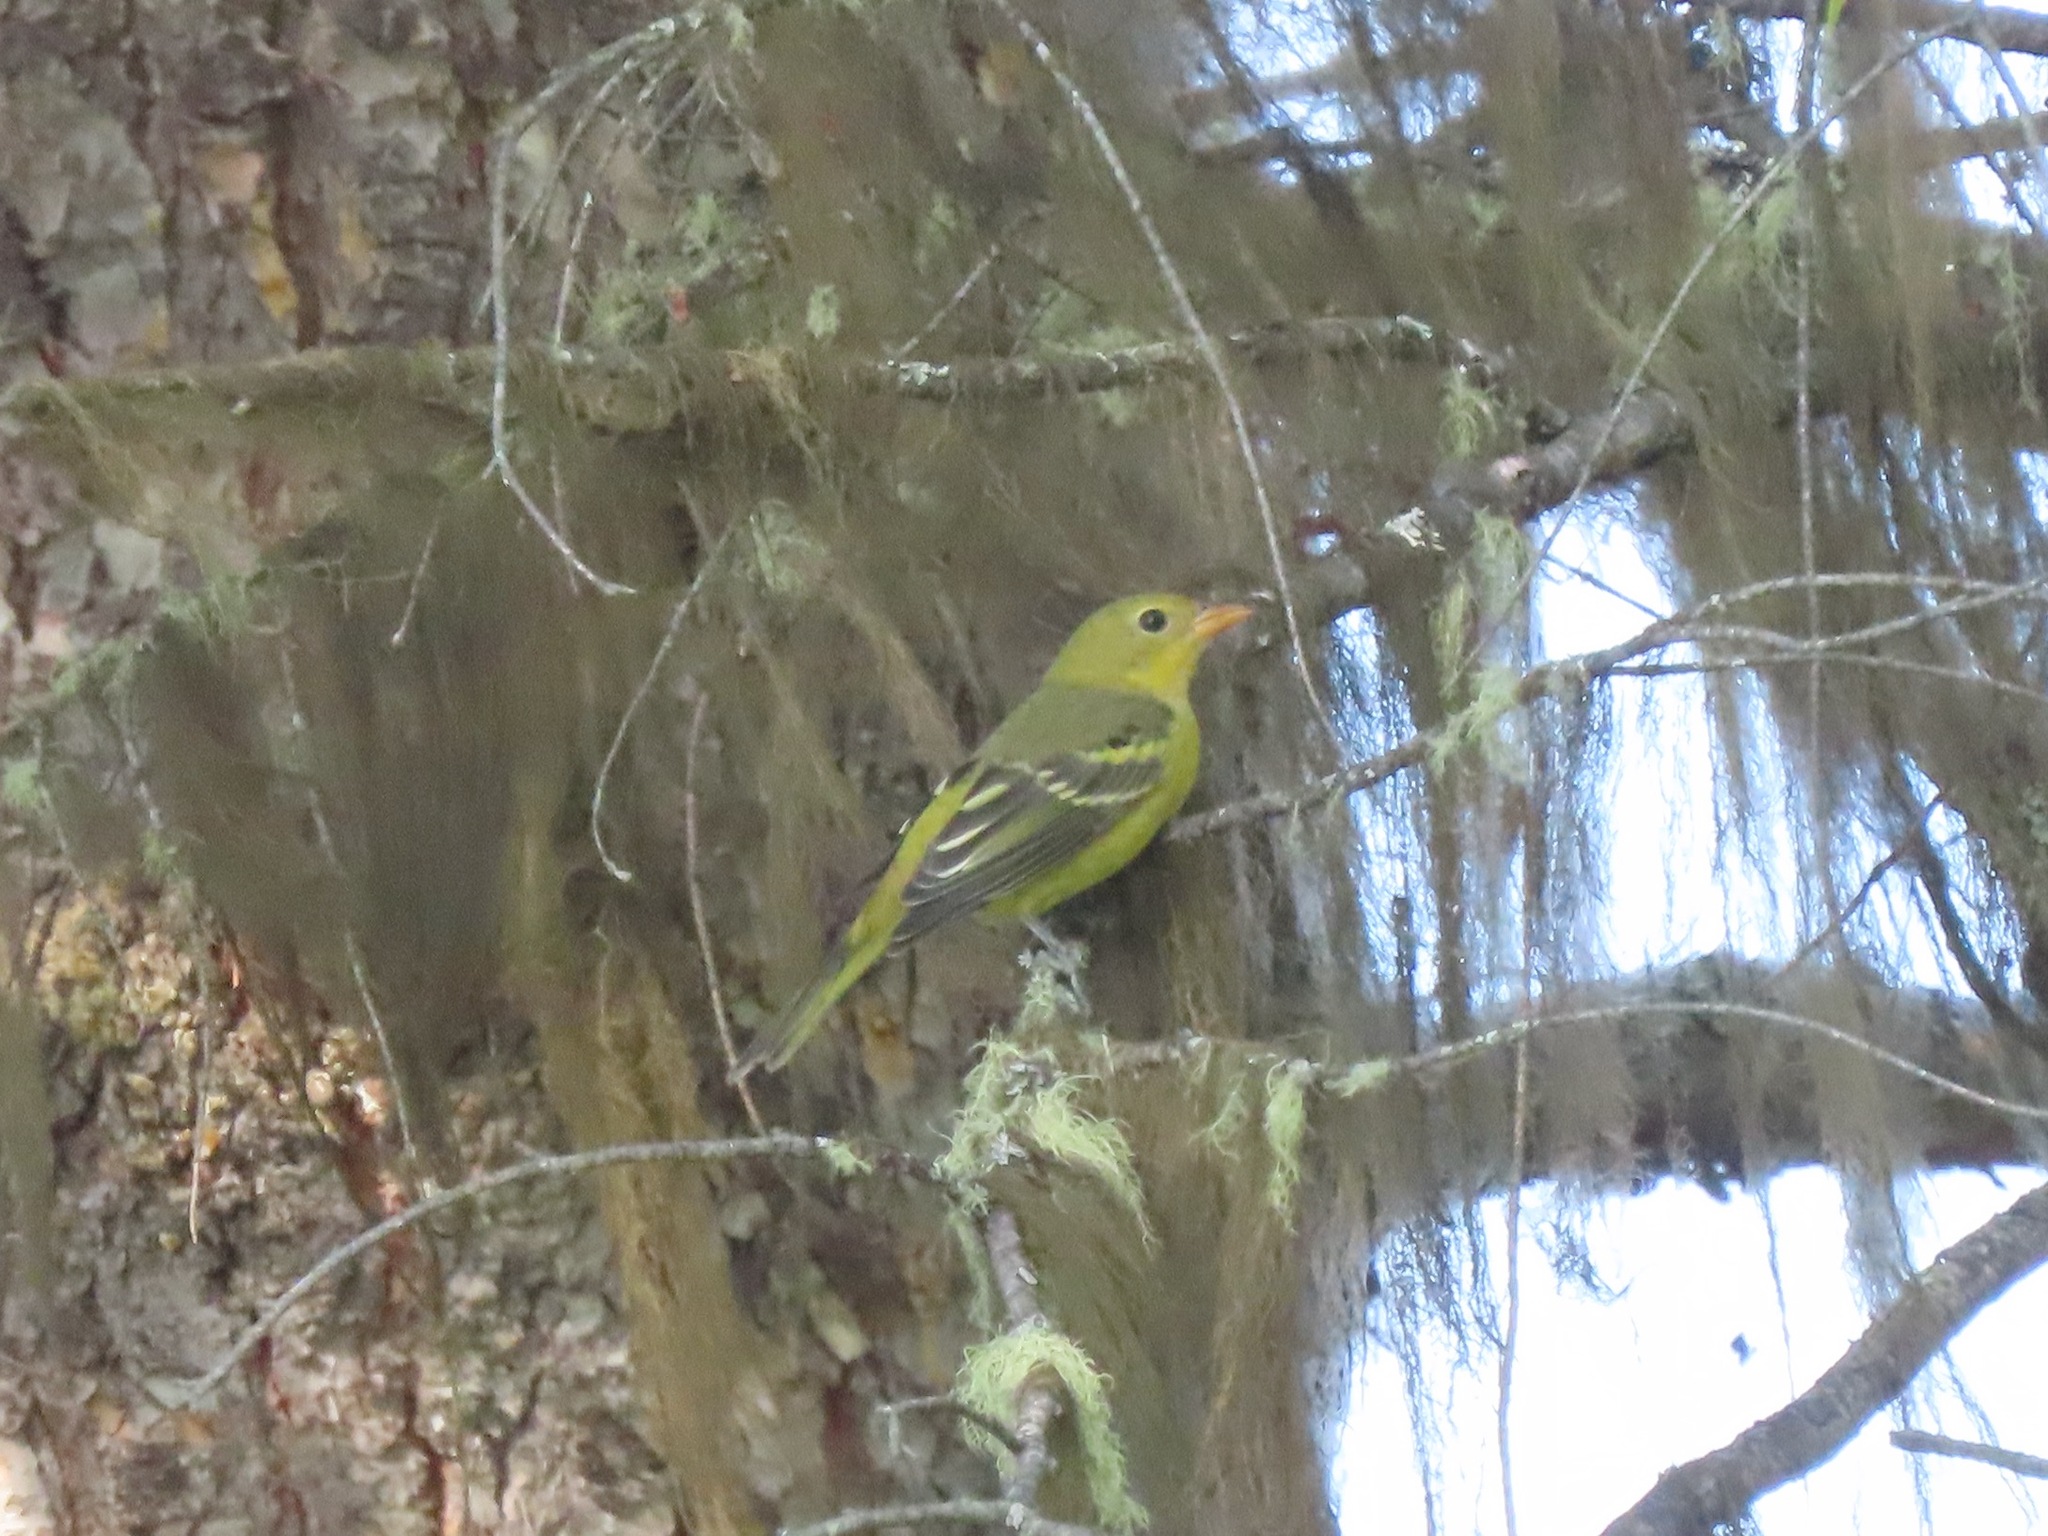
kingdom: Animalia
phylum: Chordata
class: Aves
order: Passeriformes
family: Cardinalidae
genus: Piranga
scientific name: Piranga ludoviciana
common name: Western tanager
